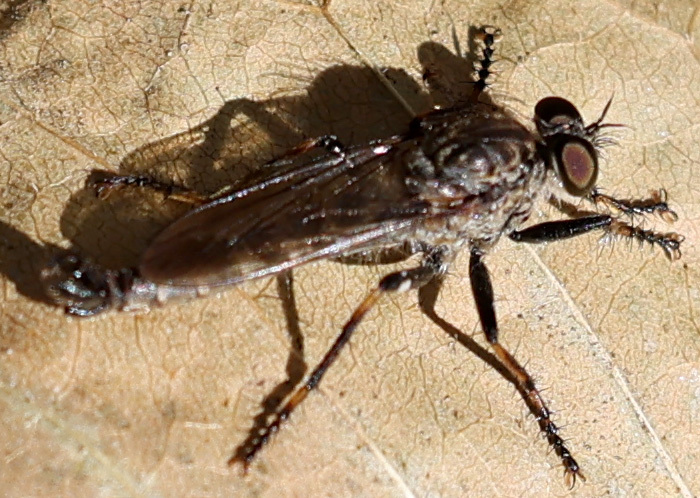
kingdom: Animalia
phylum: Arthropoda
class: Insecta
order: Diptera
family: Asilidae
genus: Machimus
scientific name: Machimus sadyates
